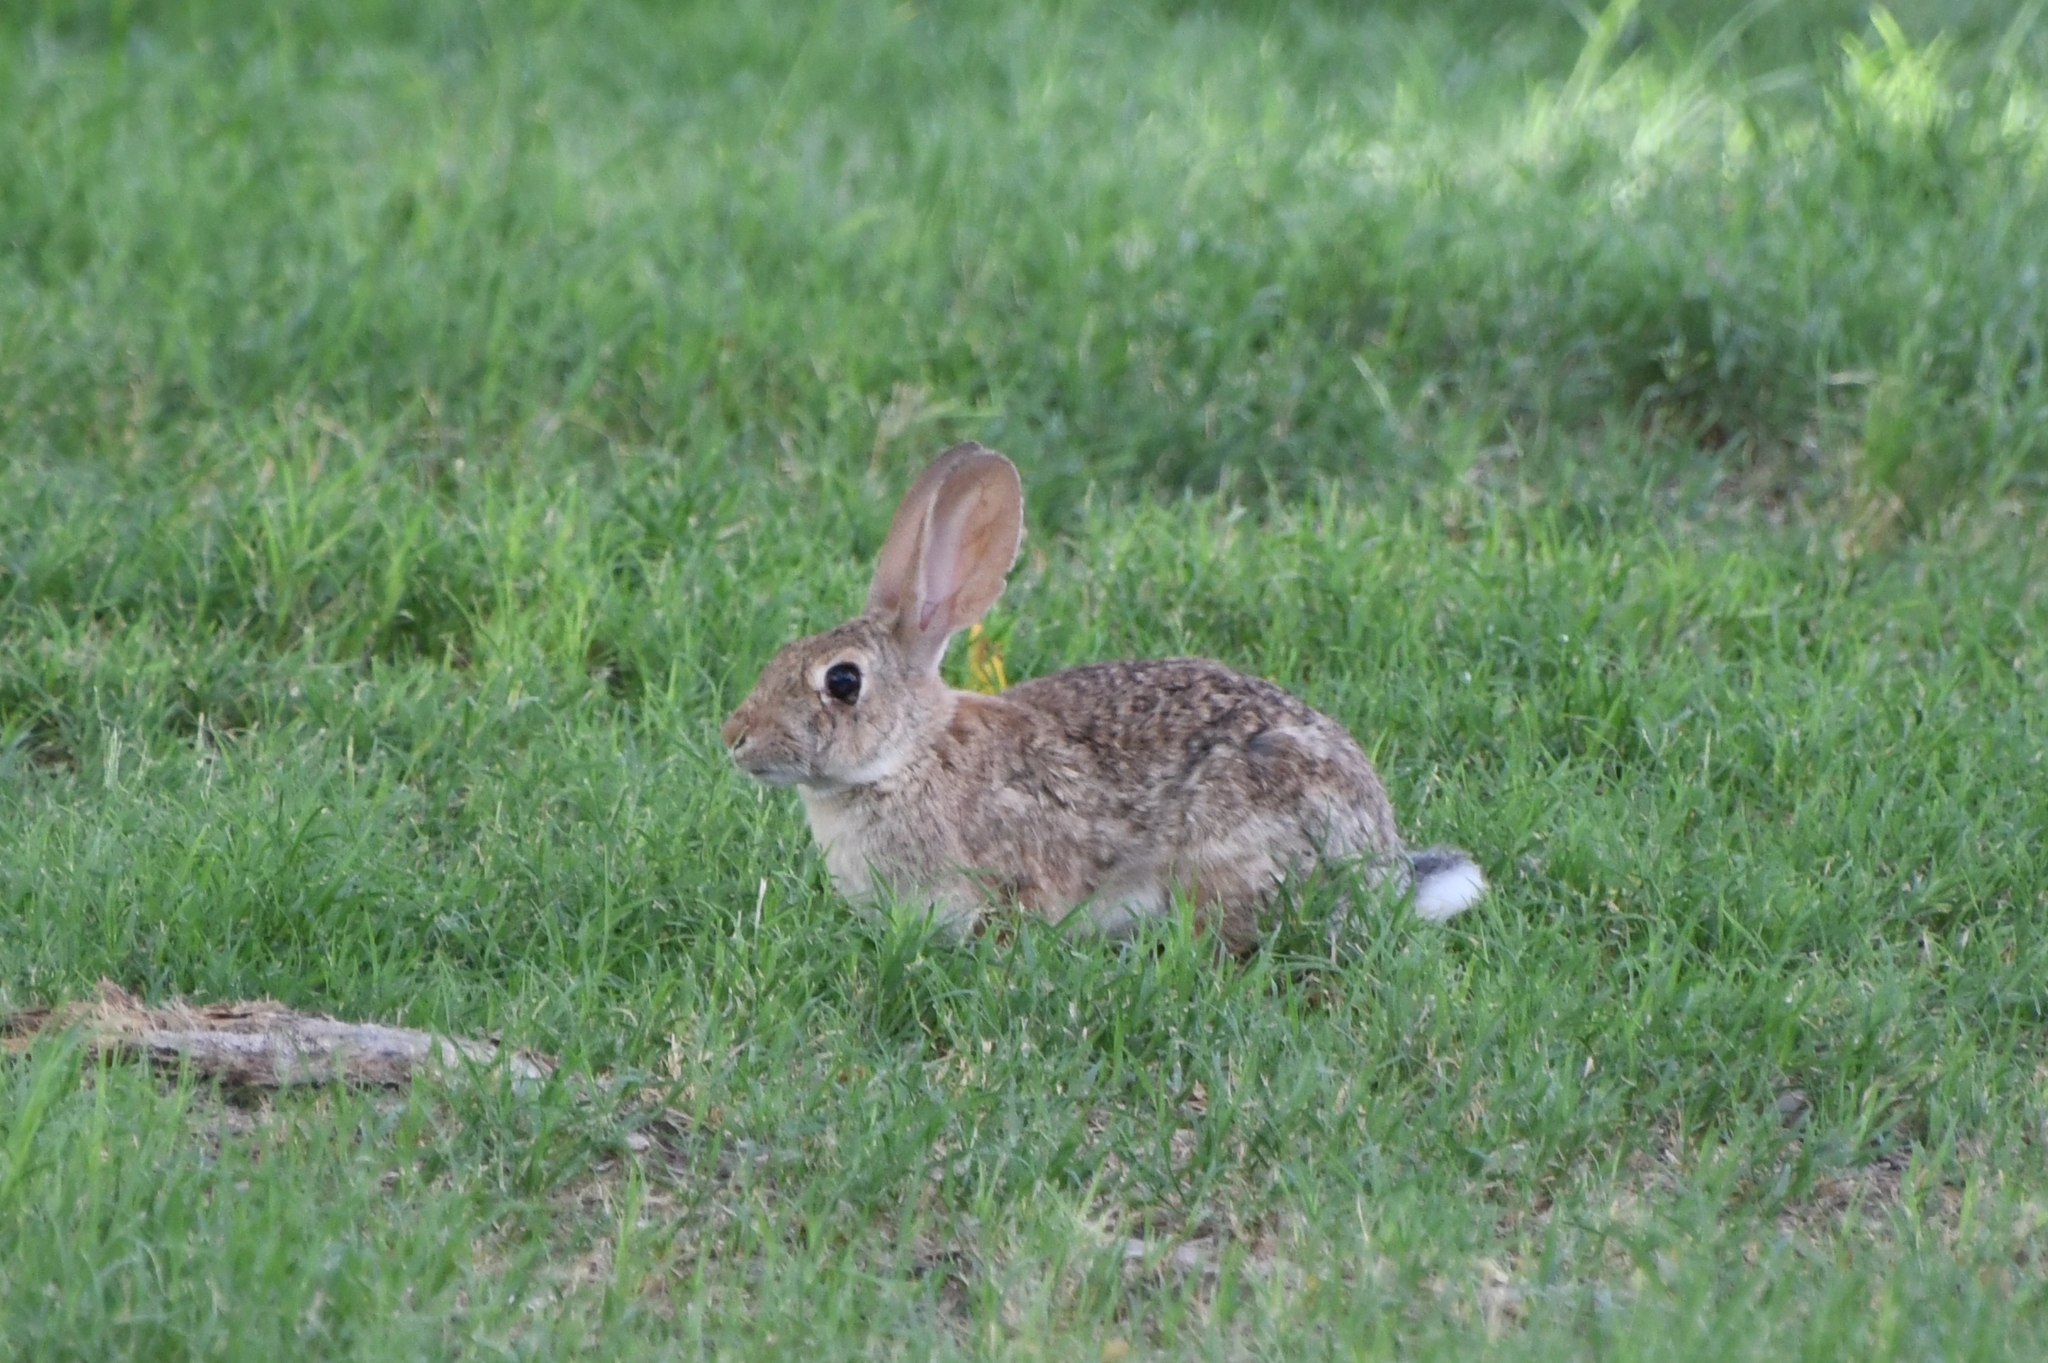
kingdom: Animalia
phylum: Chordata
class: Mammalia
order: Lagomorpha
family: Leporidae
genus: Sylvilagus
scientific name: Sylvilagus audubonii
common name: Desert cottontail
